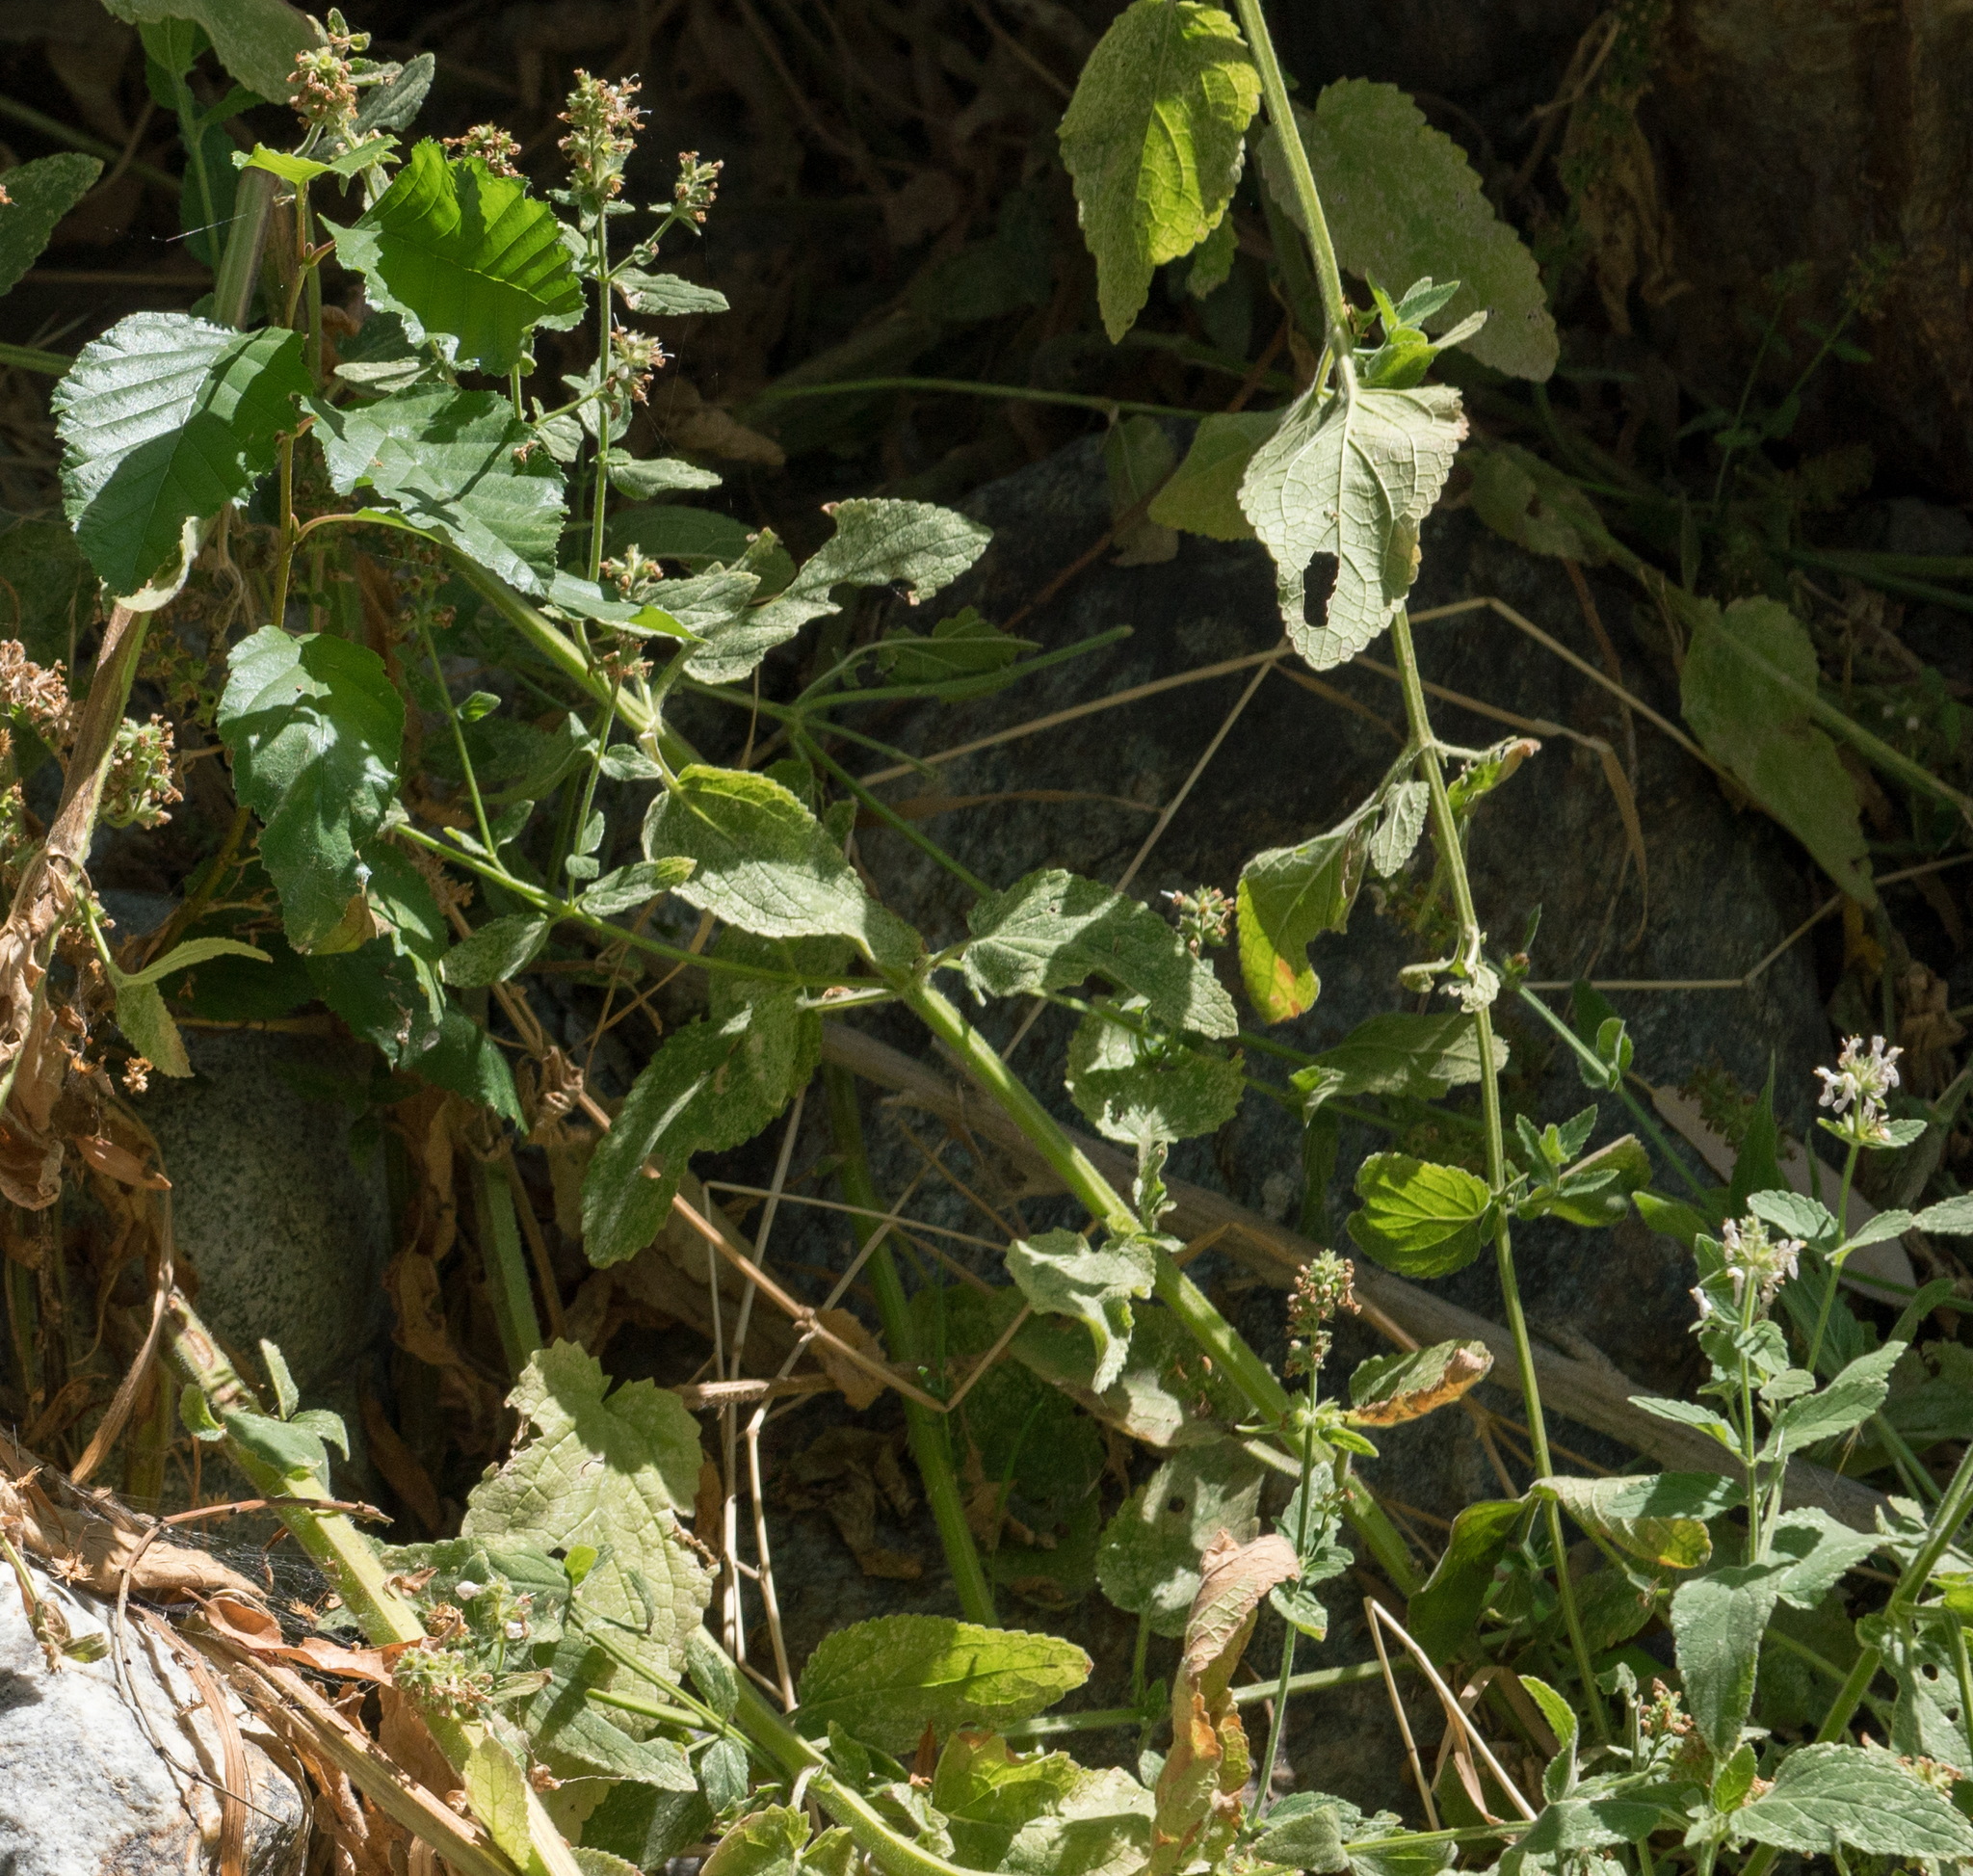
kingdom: Plantae
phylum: Tracheophyta
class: Magnoliopsida
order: Lamiales
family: Lamiaceae
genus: Stachys
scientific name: Stachys albens
